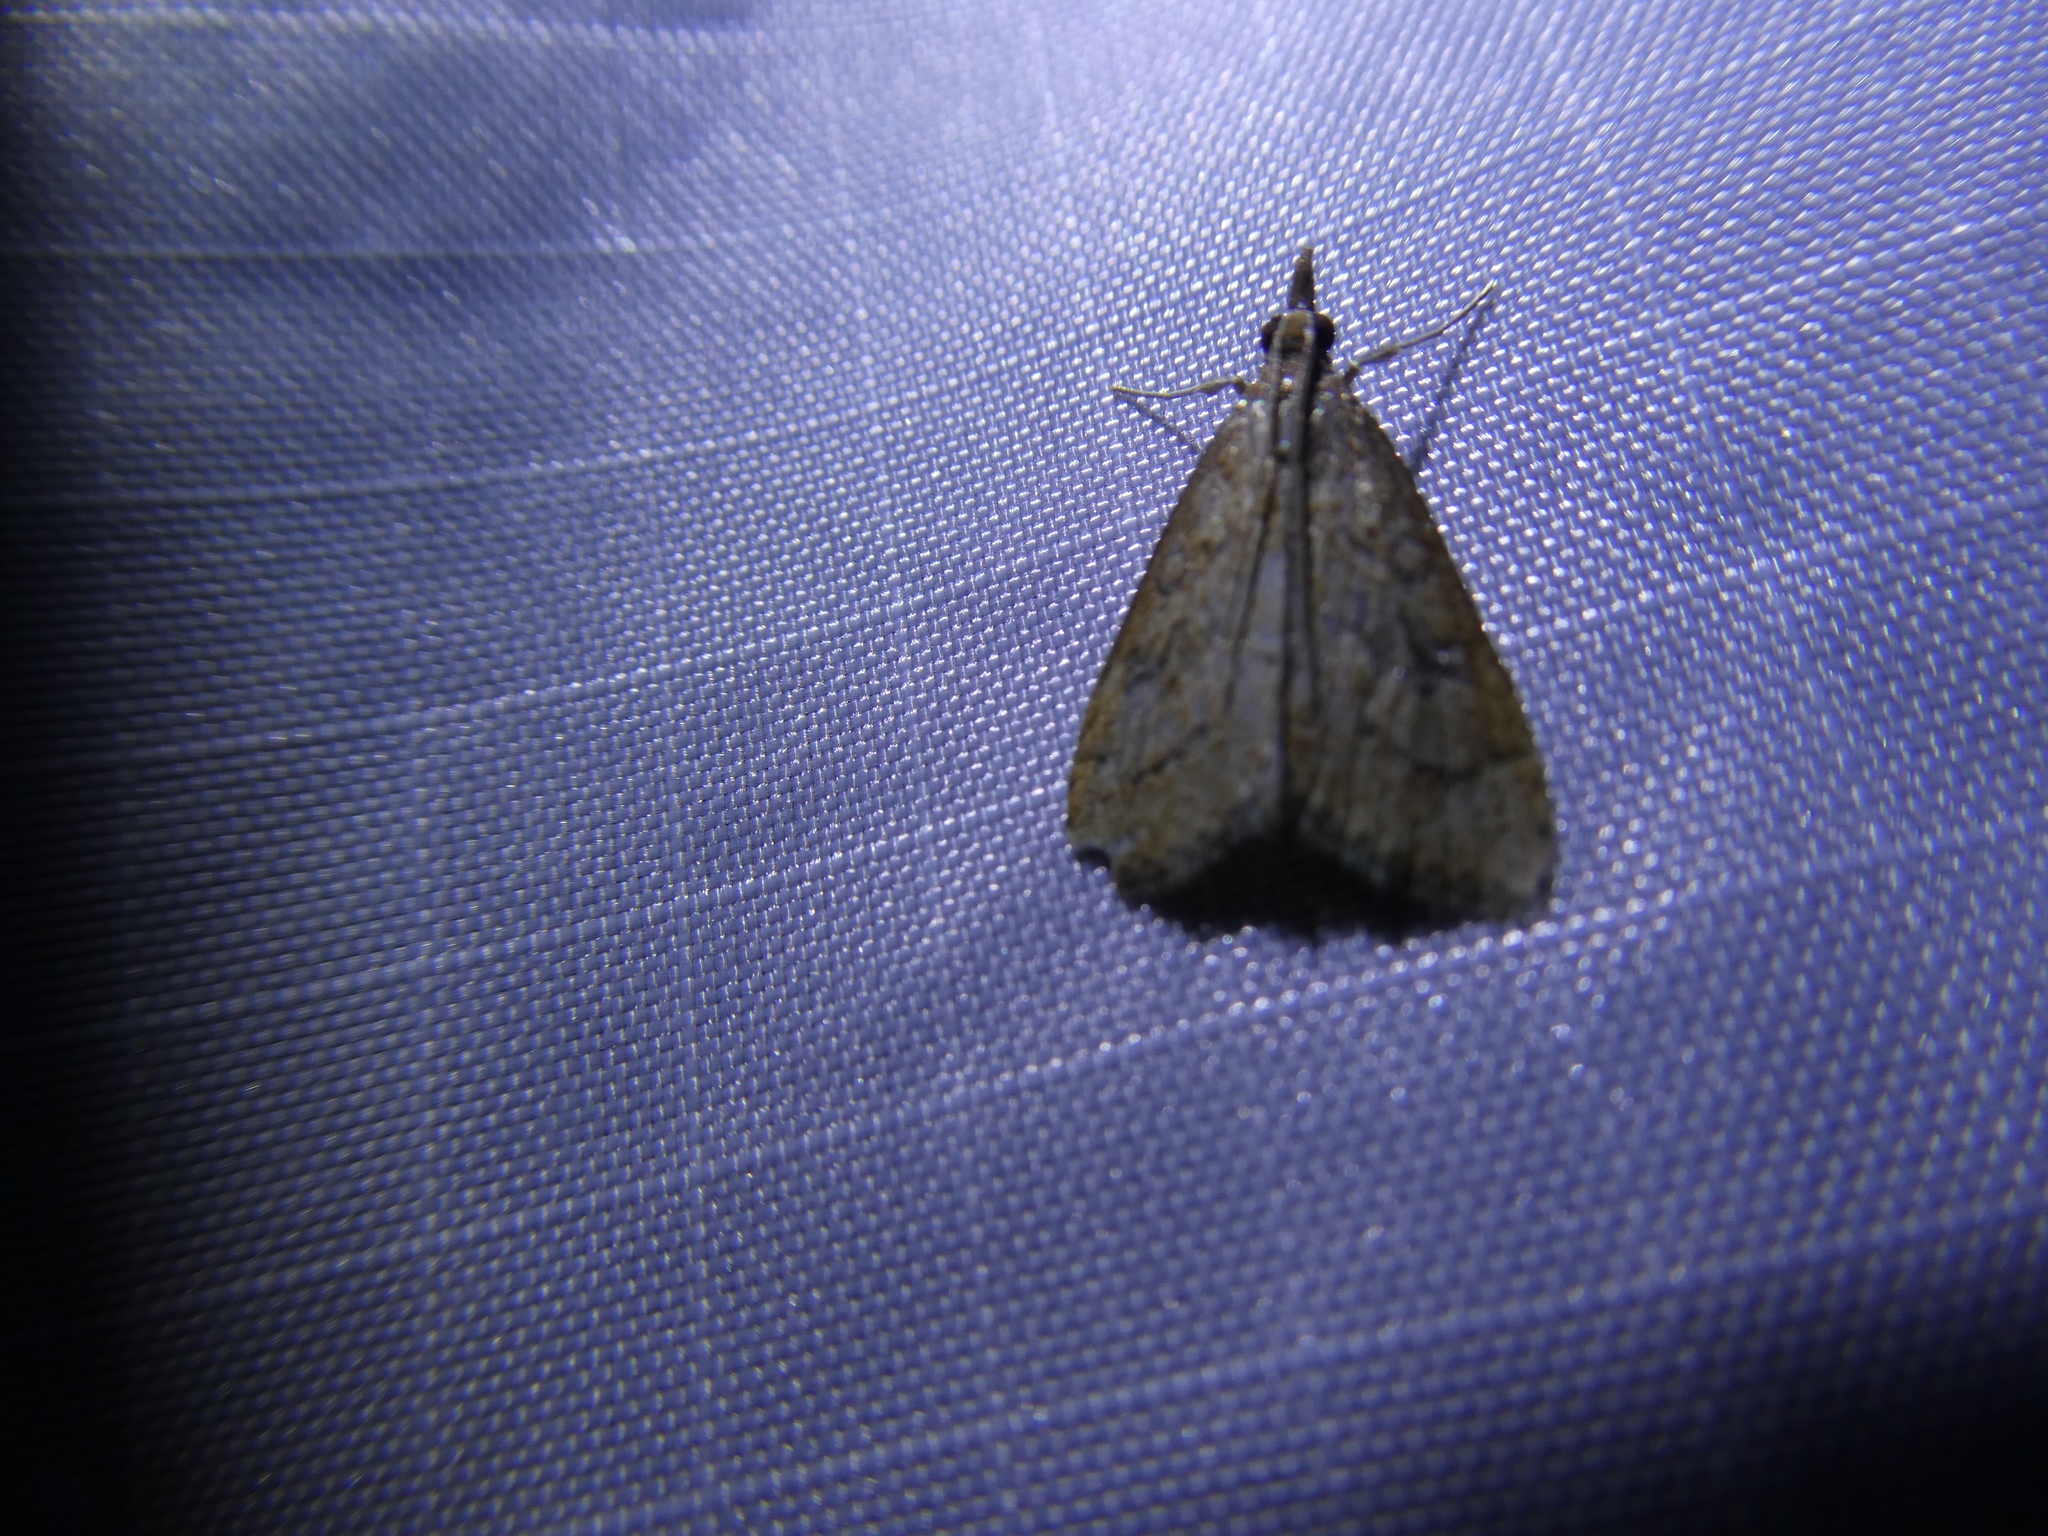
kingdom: Animalia
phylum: Arthropoda
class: Insecta
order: Lepidoptera
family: Crambidae
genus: Udea
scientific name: Udea rubigalis
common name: Celery leaftier moth
